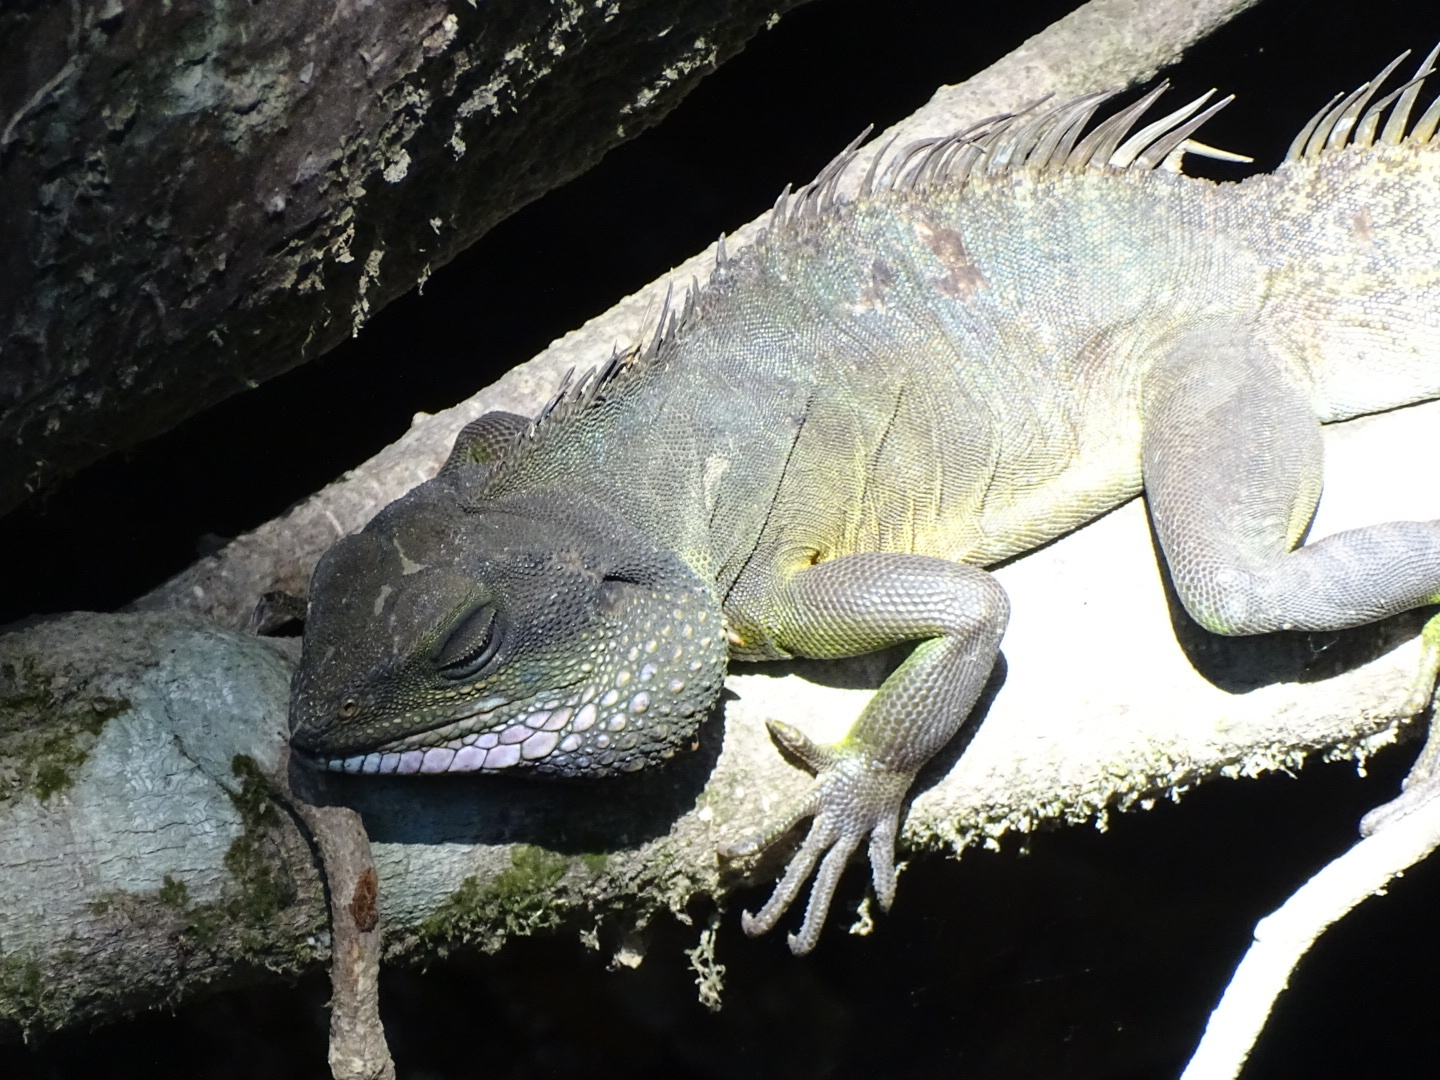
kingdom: Animalia
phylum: Chordata
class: Squamata
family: Agamidae
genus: Physignathus
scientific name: Physignathus cocincinus
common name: Asian water dragon
